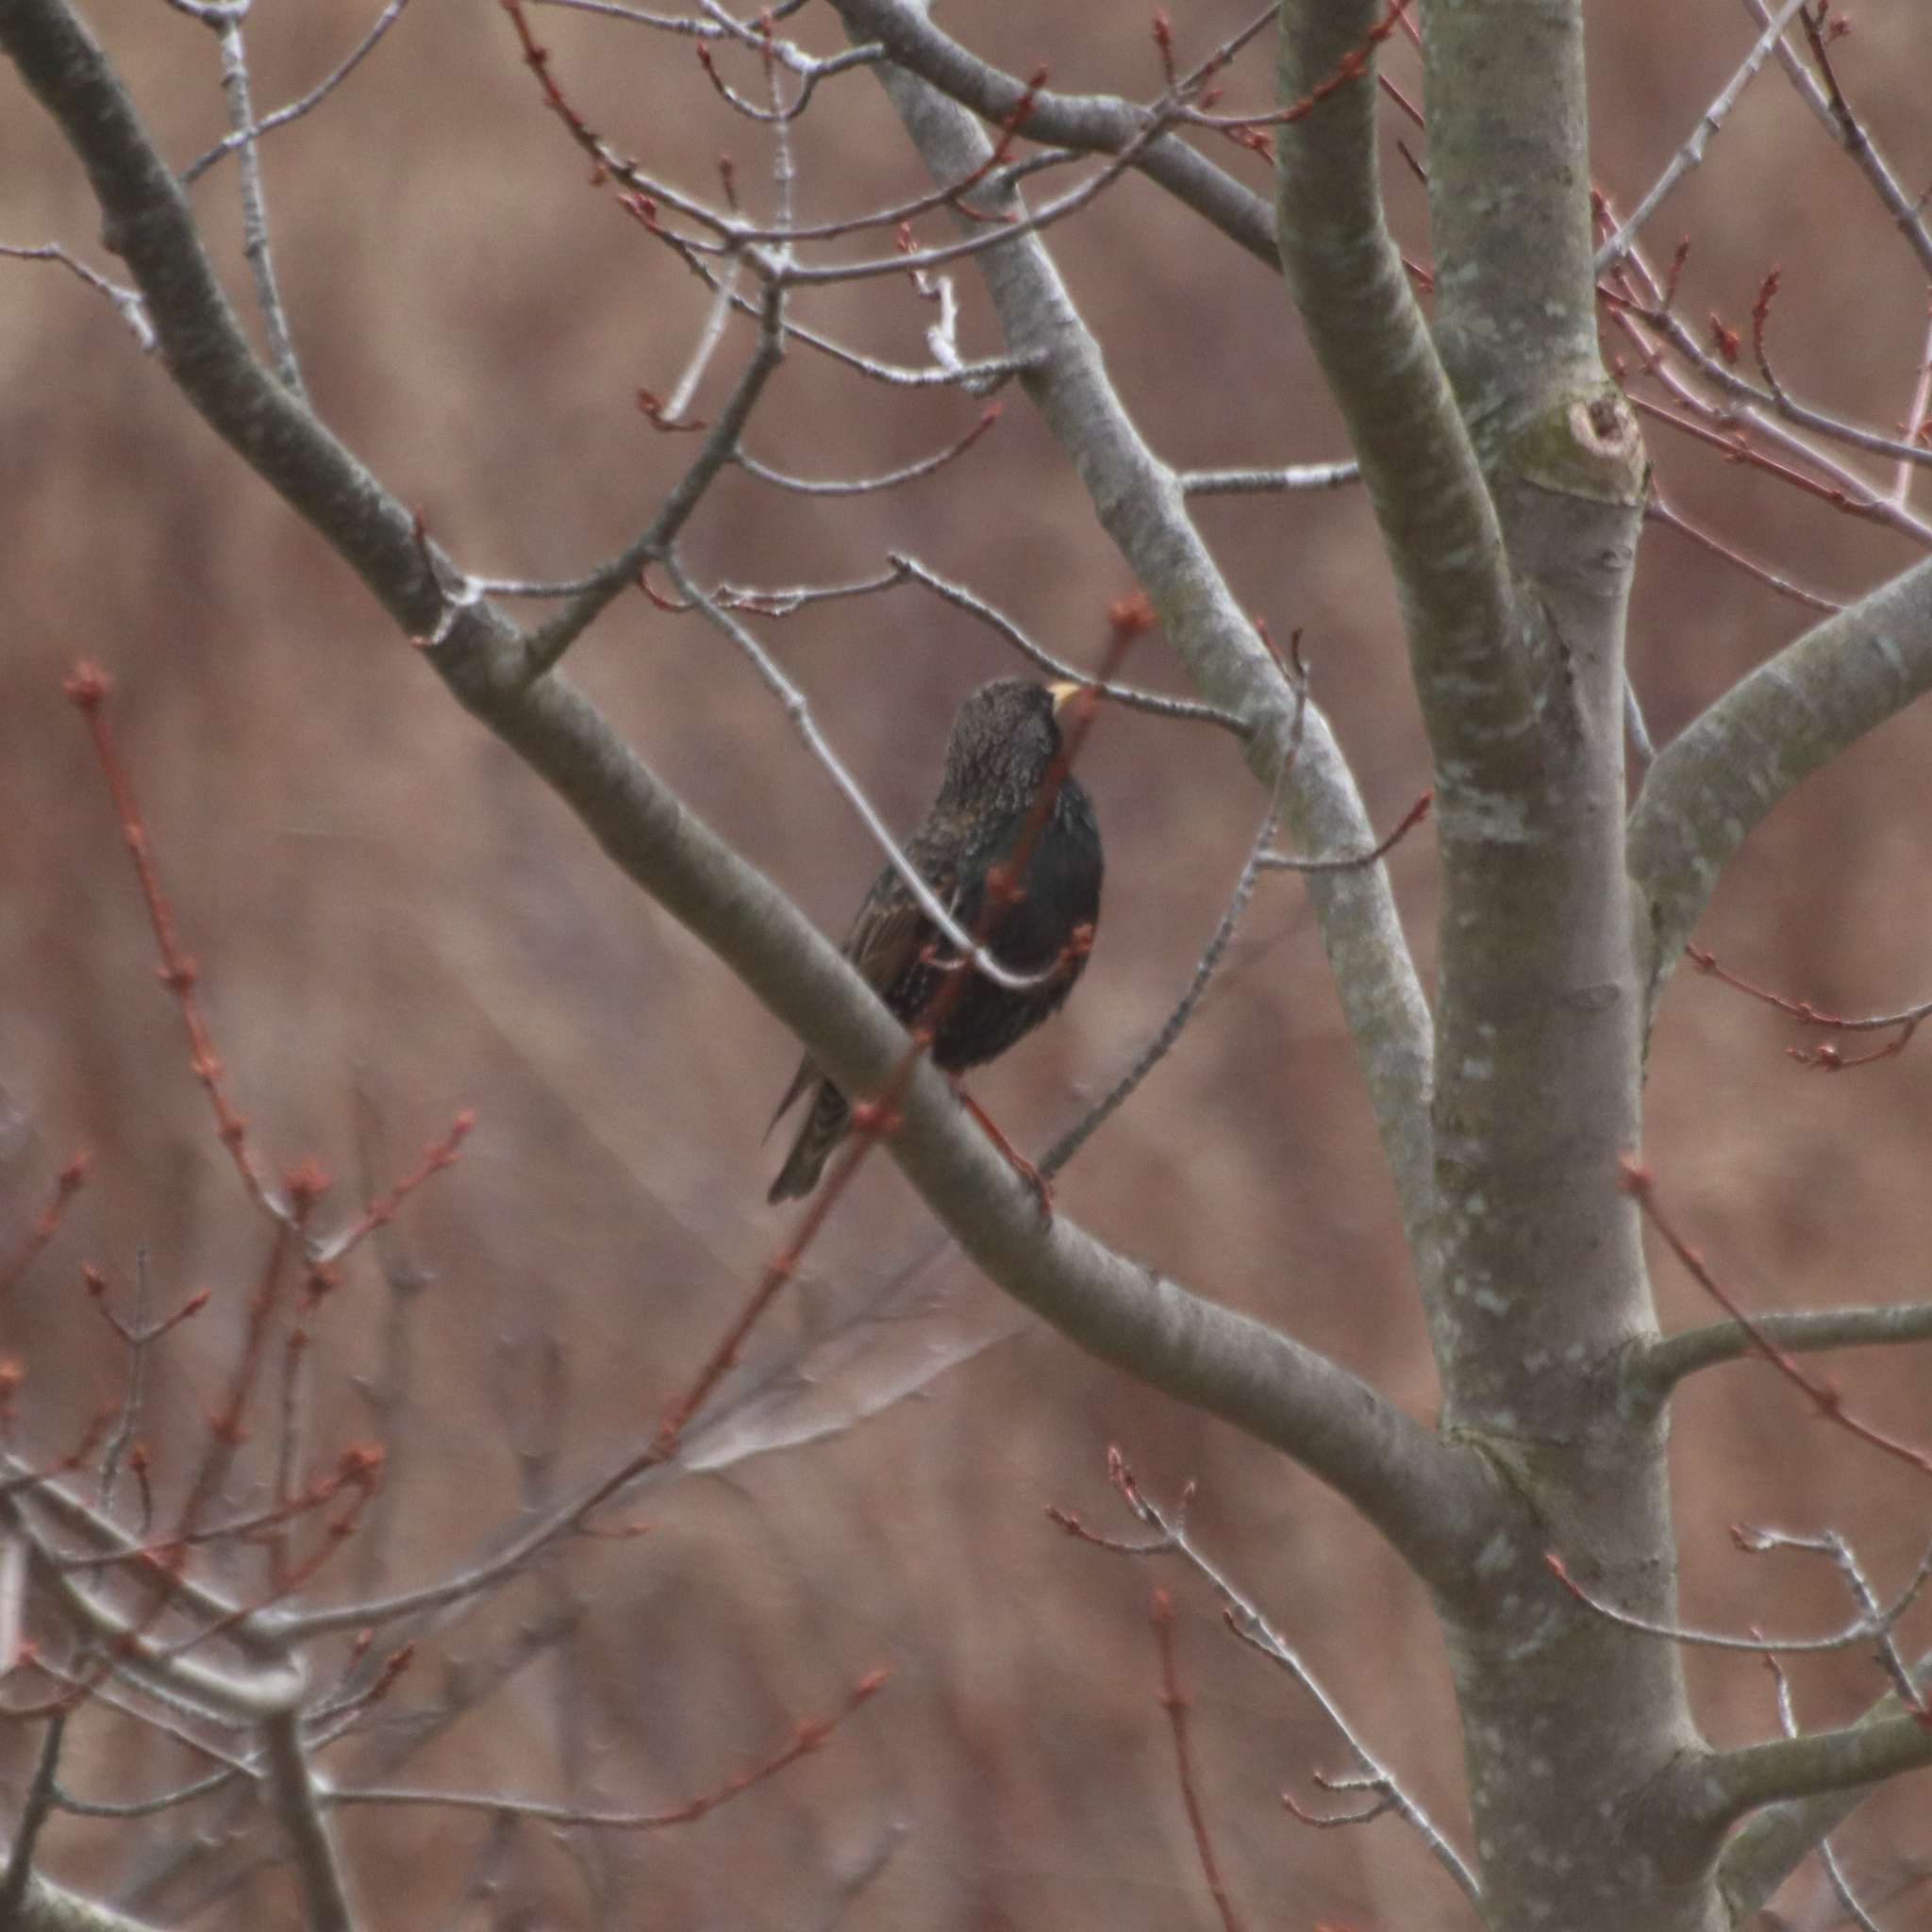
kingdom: Animalia
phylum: Chordata
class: Aves
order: Passeriformes
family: Sturnidae
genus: Sturnus
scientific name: Sturnus vulgaris
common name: Common starling
